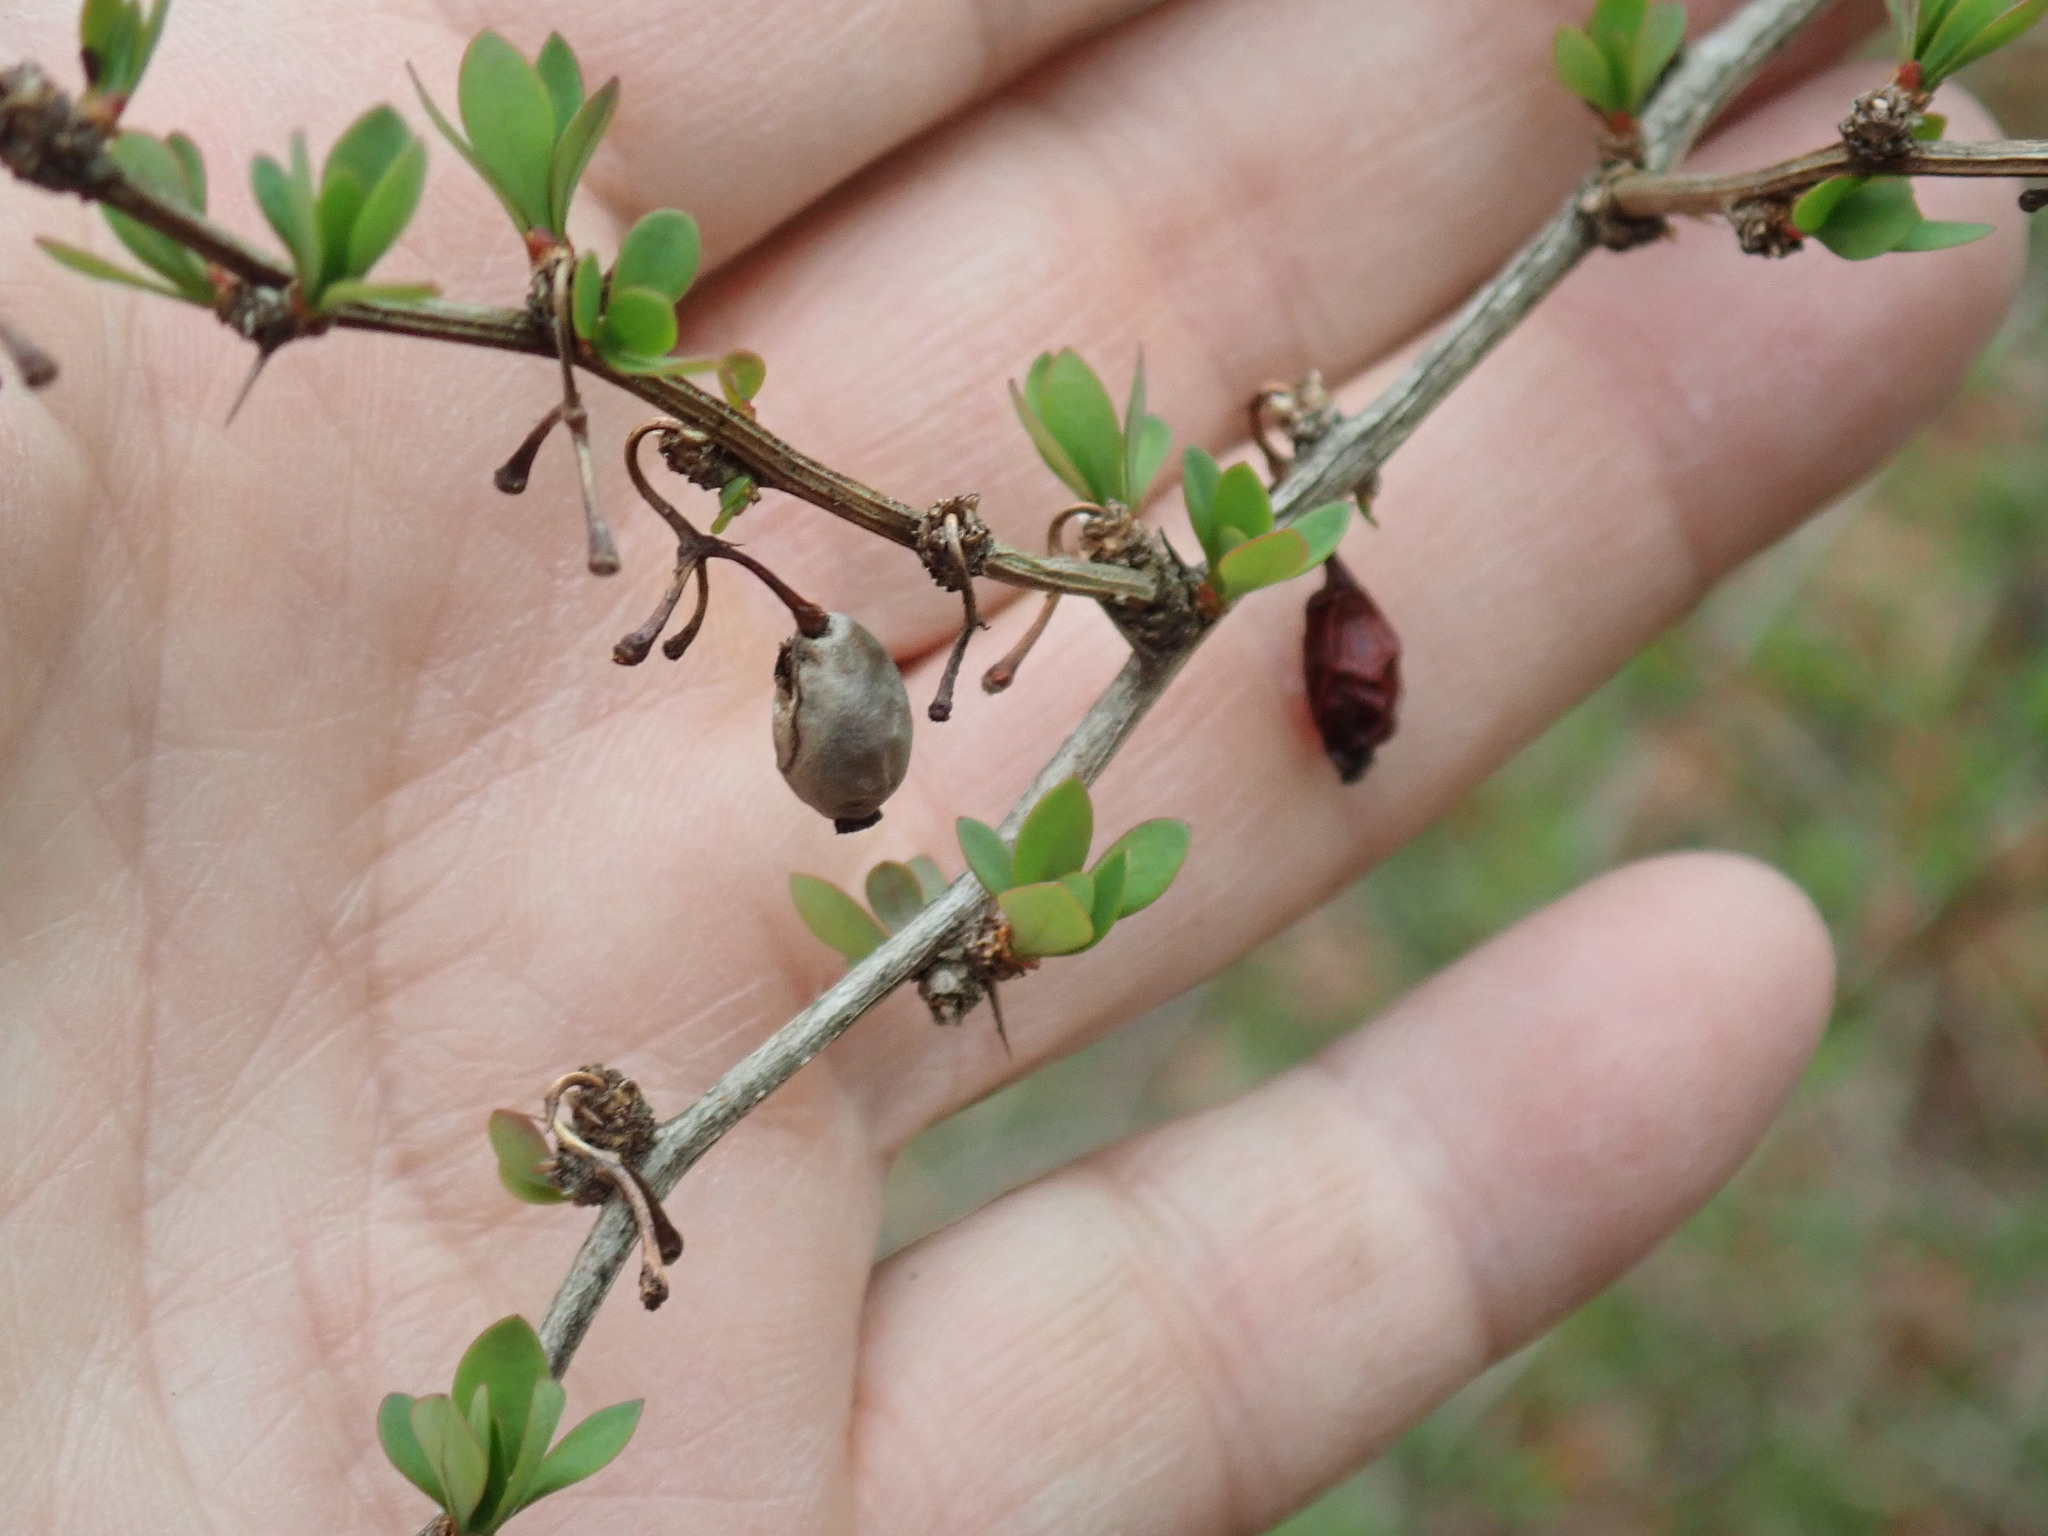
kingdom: Plantae
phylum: Tracheophyta
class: Magnoliopsida
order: Ranunculales
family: Berberidaceae
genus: Berberis
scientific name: Berberis thunbergii
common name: Japanese barberry
